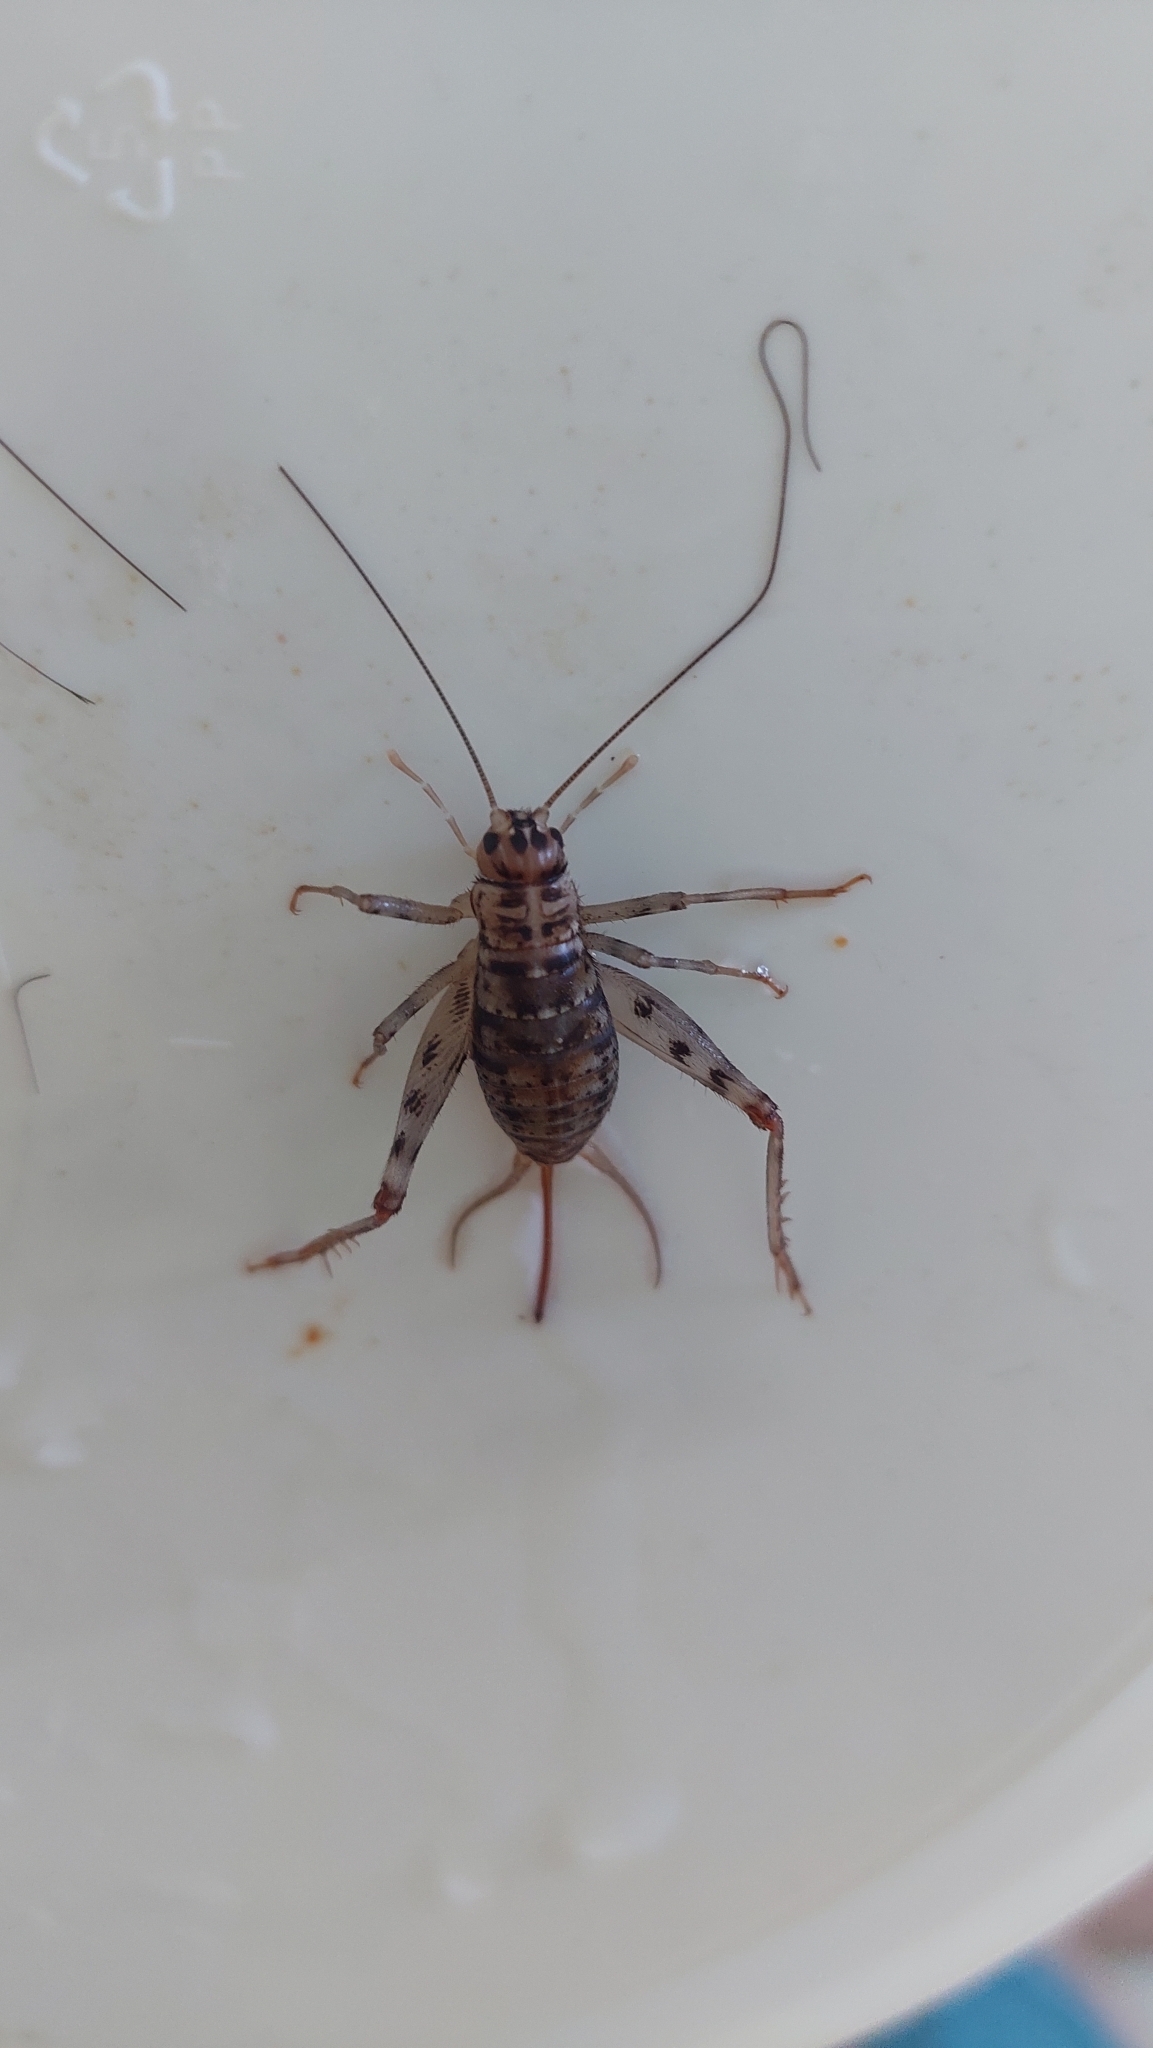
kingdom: Animalia
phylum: Arthropoda
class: Insecta
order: Orthoptera
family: Gryllidae
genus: Gryllomorpha
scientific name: Gryllomorpha dalmatina
